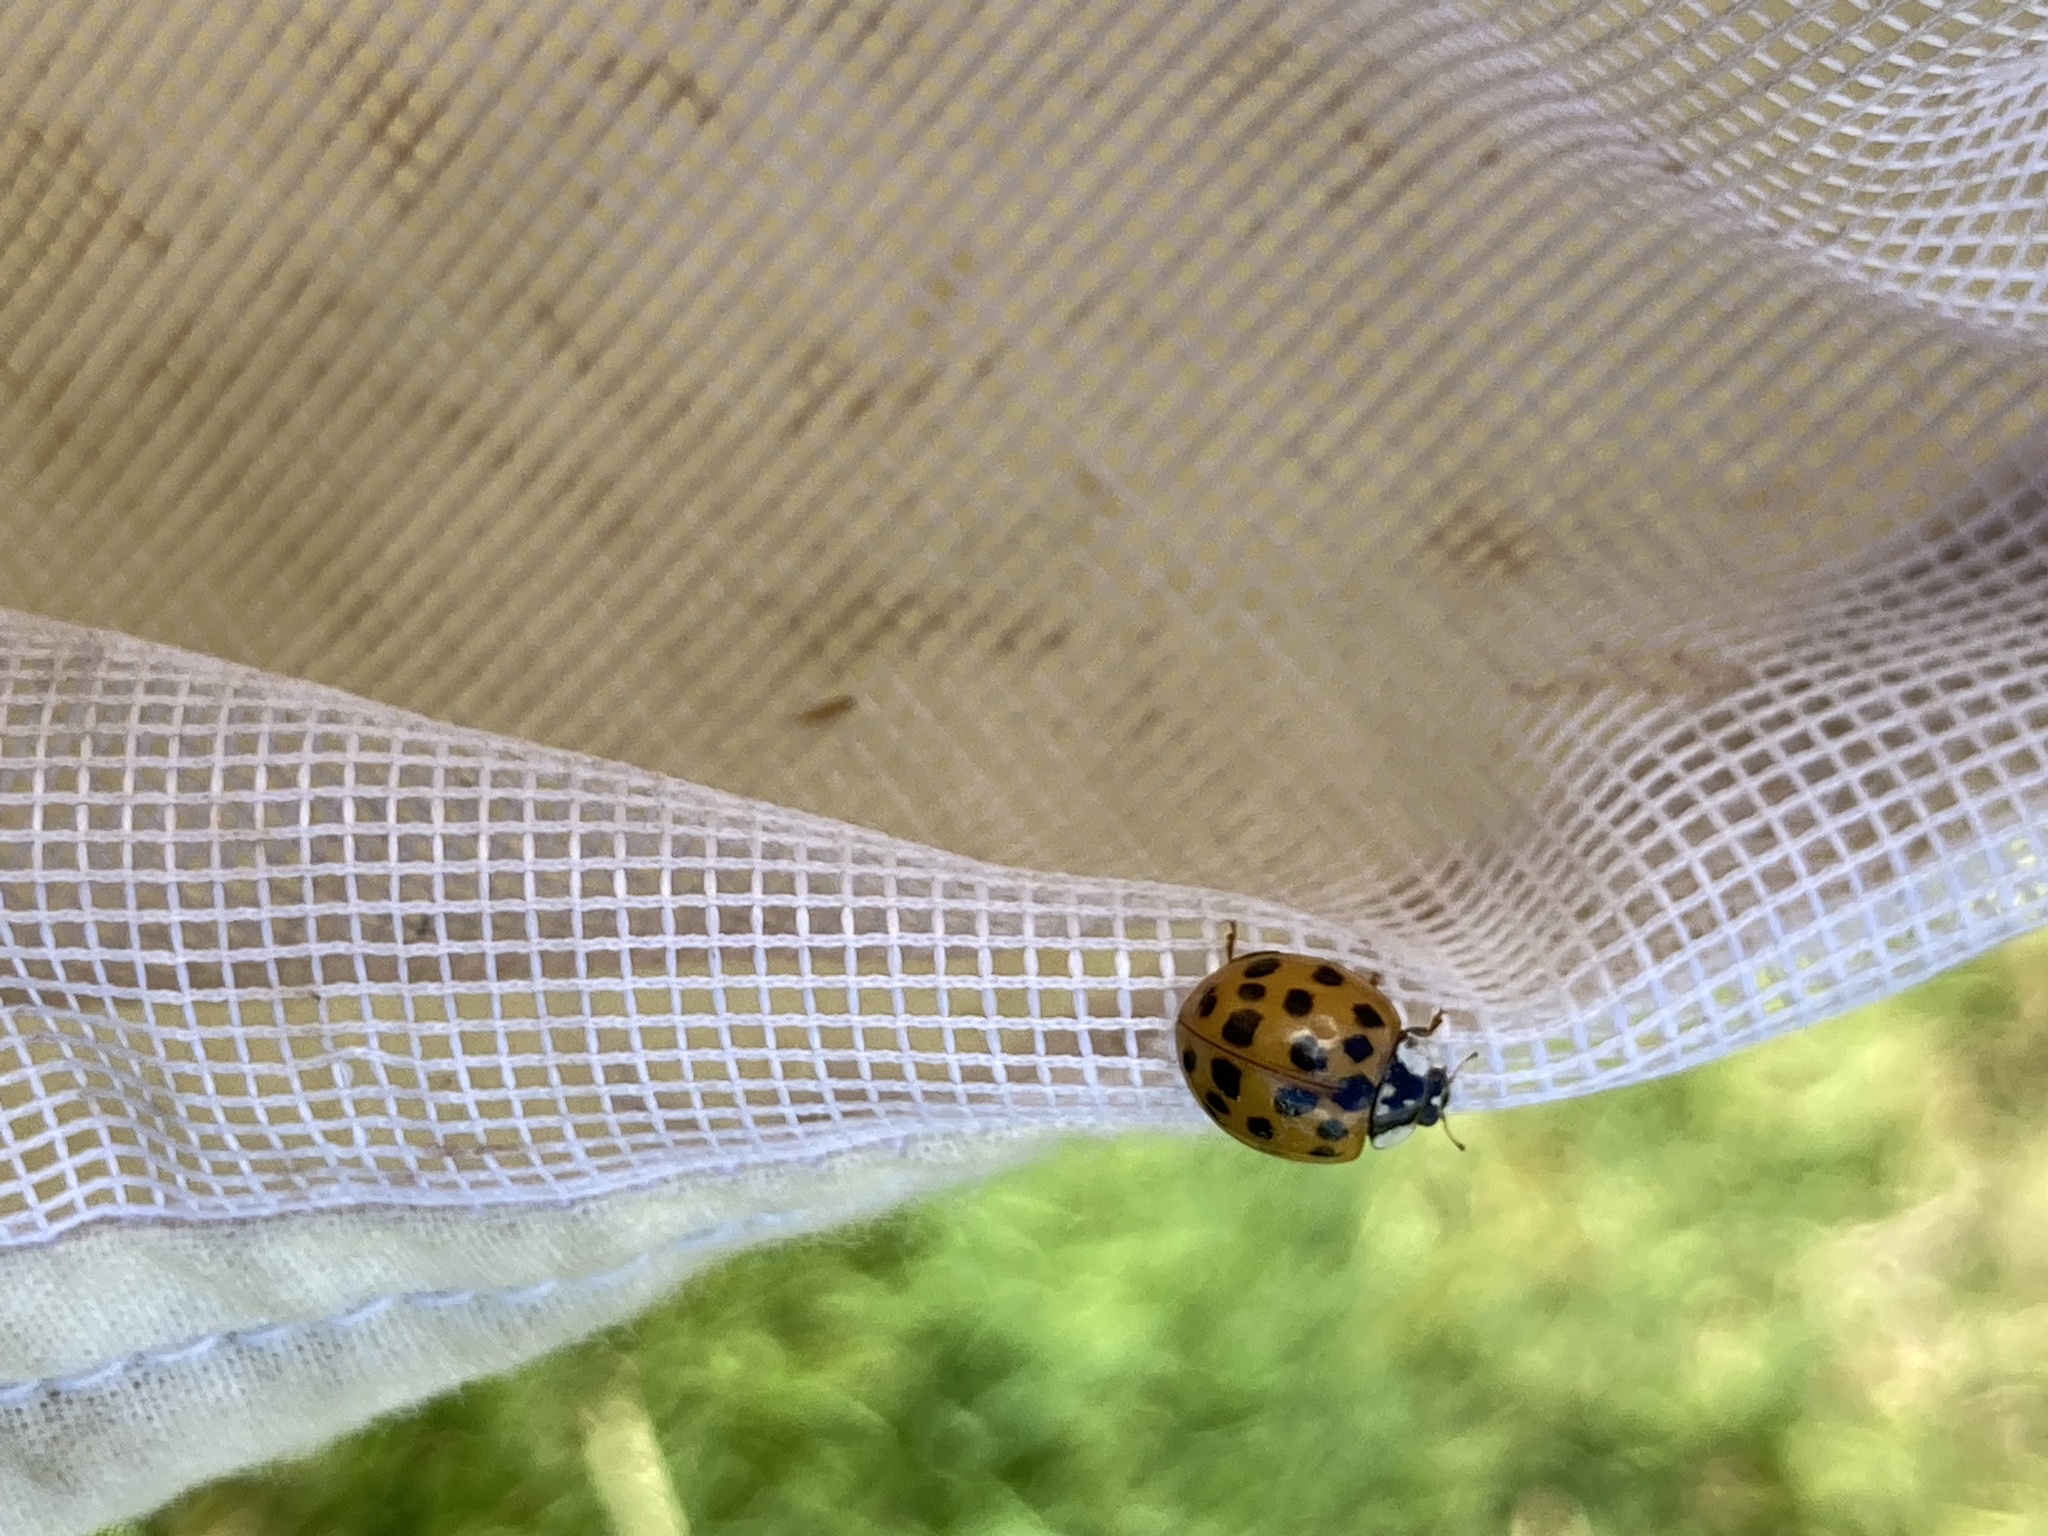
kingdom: Animalia
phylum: Arthropoda
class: Insecta
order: Coleoptera
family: Coccinellidae
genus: Harmonia
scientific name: Harmonia axyridis
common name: Harlequin ladybird
